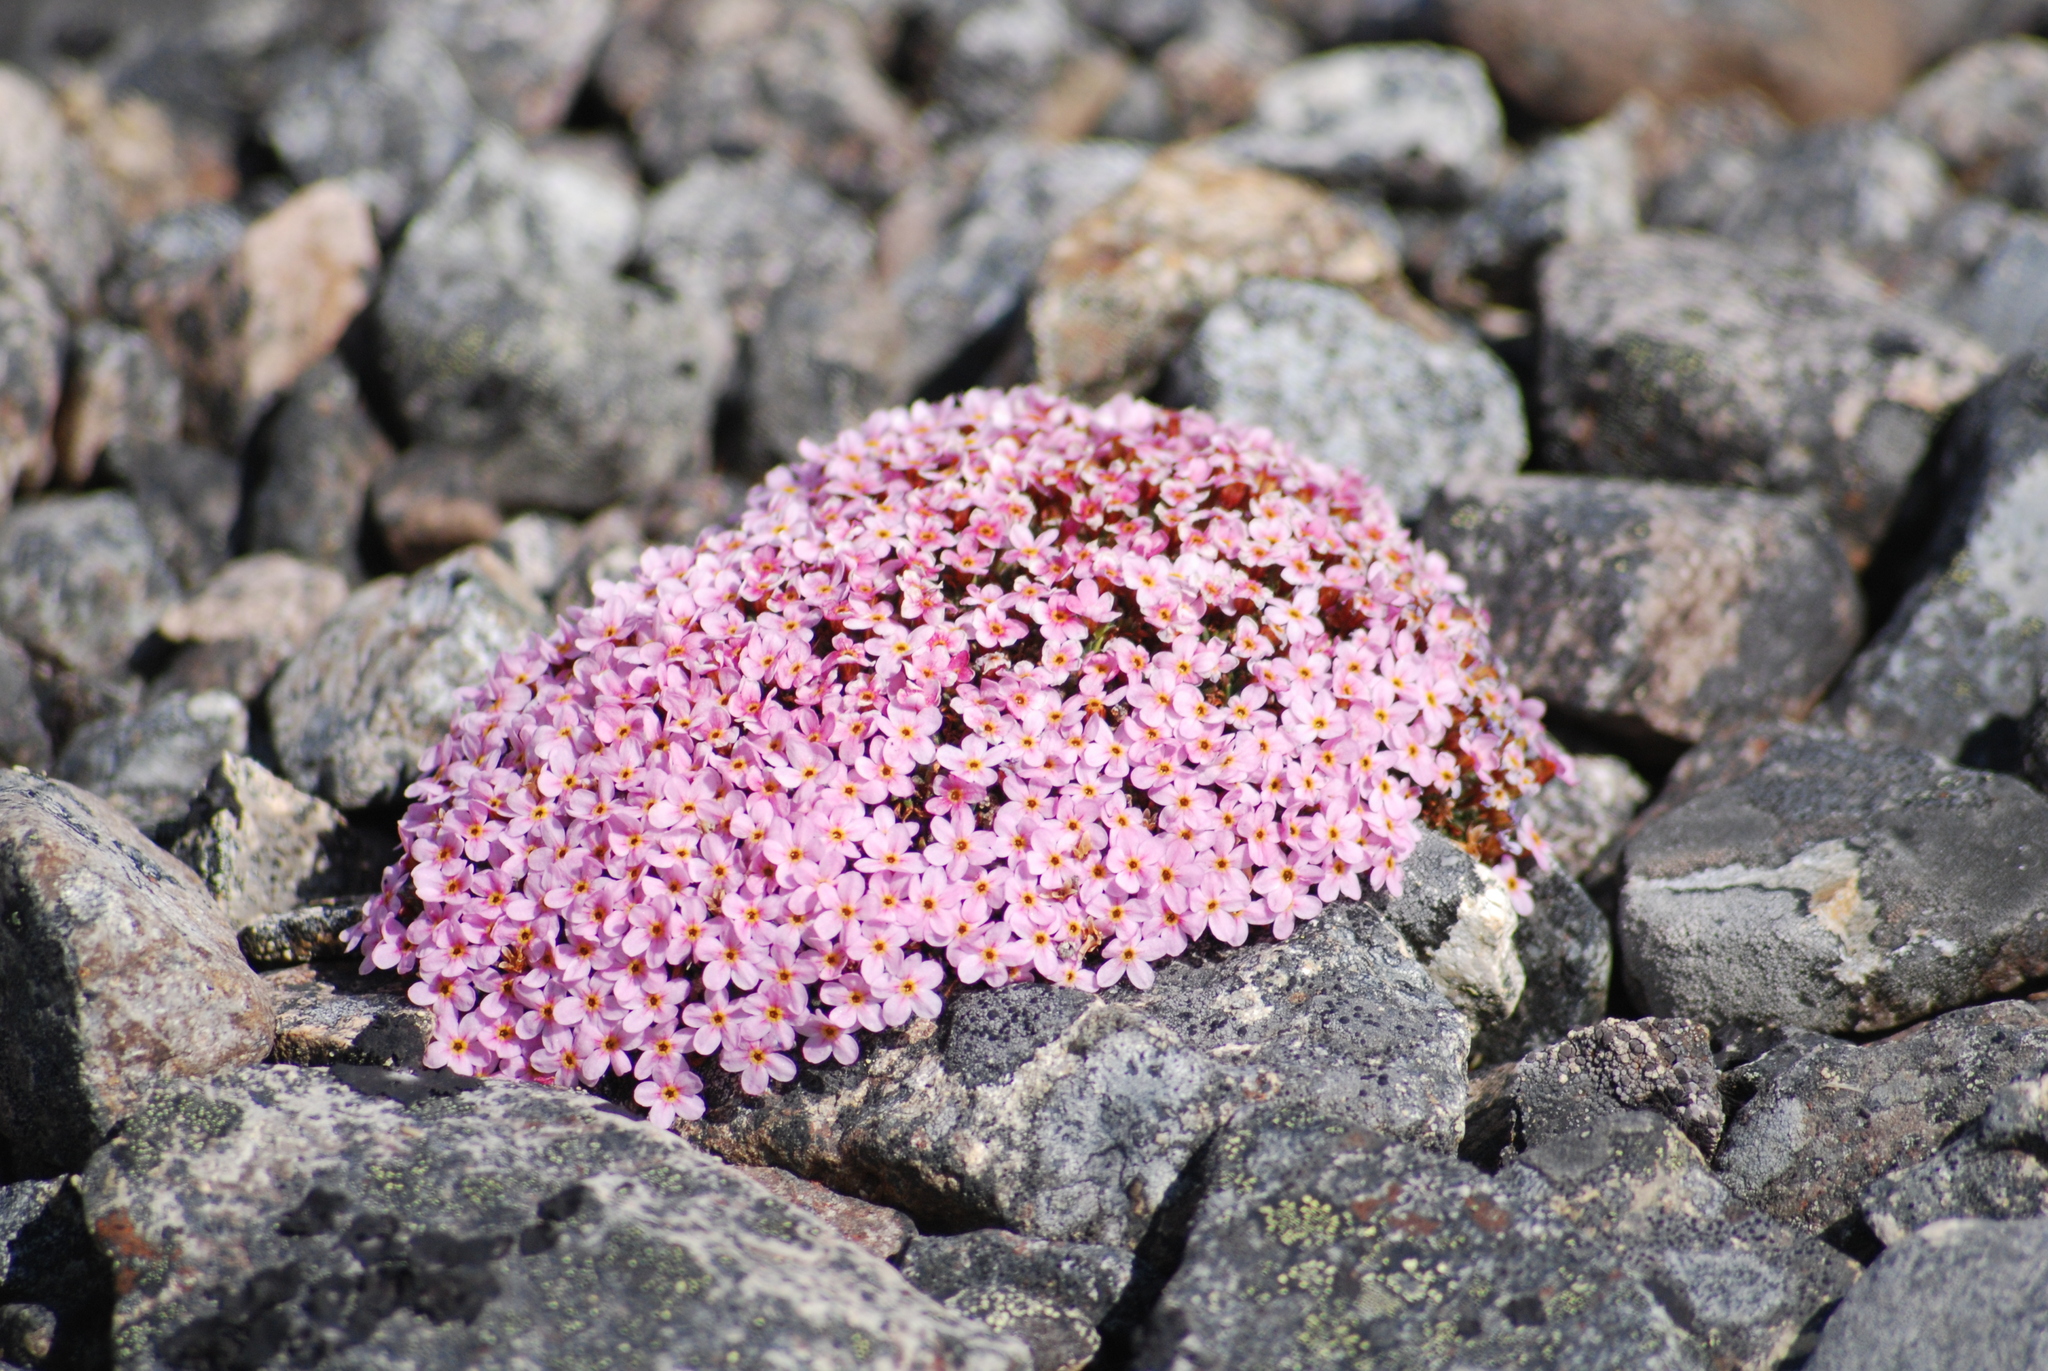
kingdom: Plantae
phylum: Tracheophyta
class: Magnoliopsida
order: Ericales
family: Primulaceae
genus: Androsace
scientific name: Androsace ochotensis
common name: Alaska dwarf-primrose
